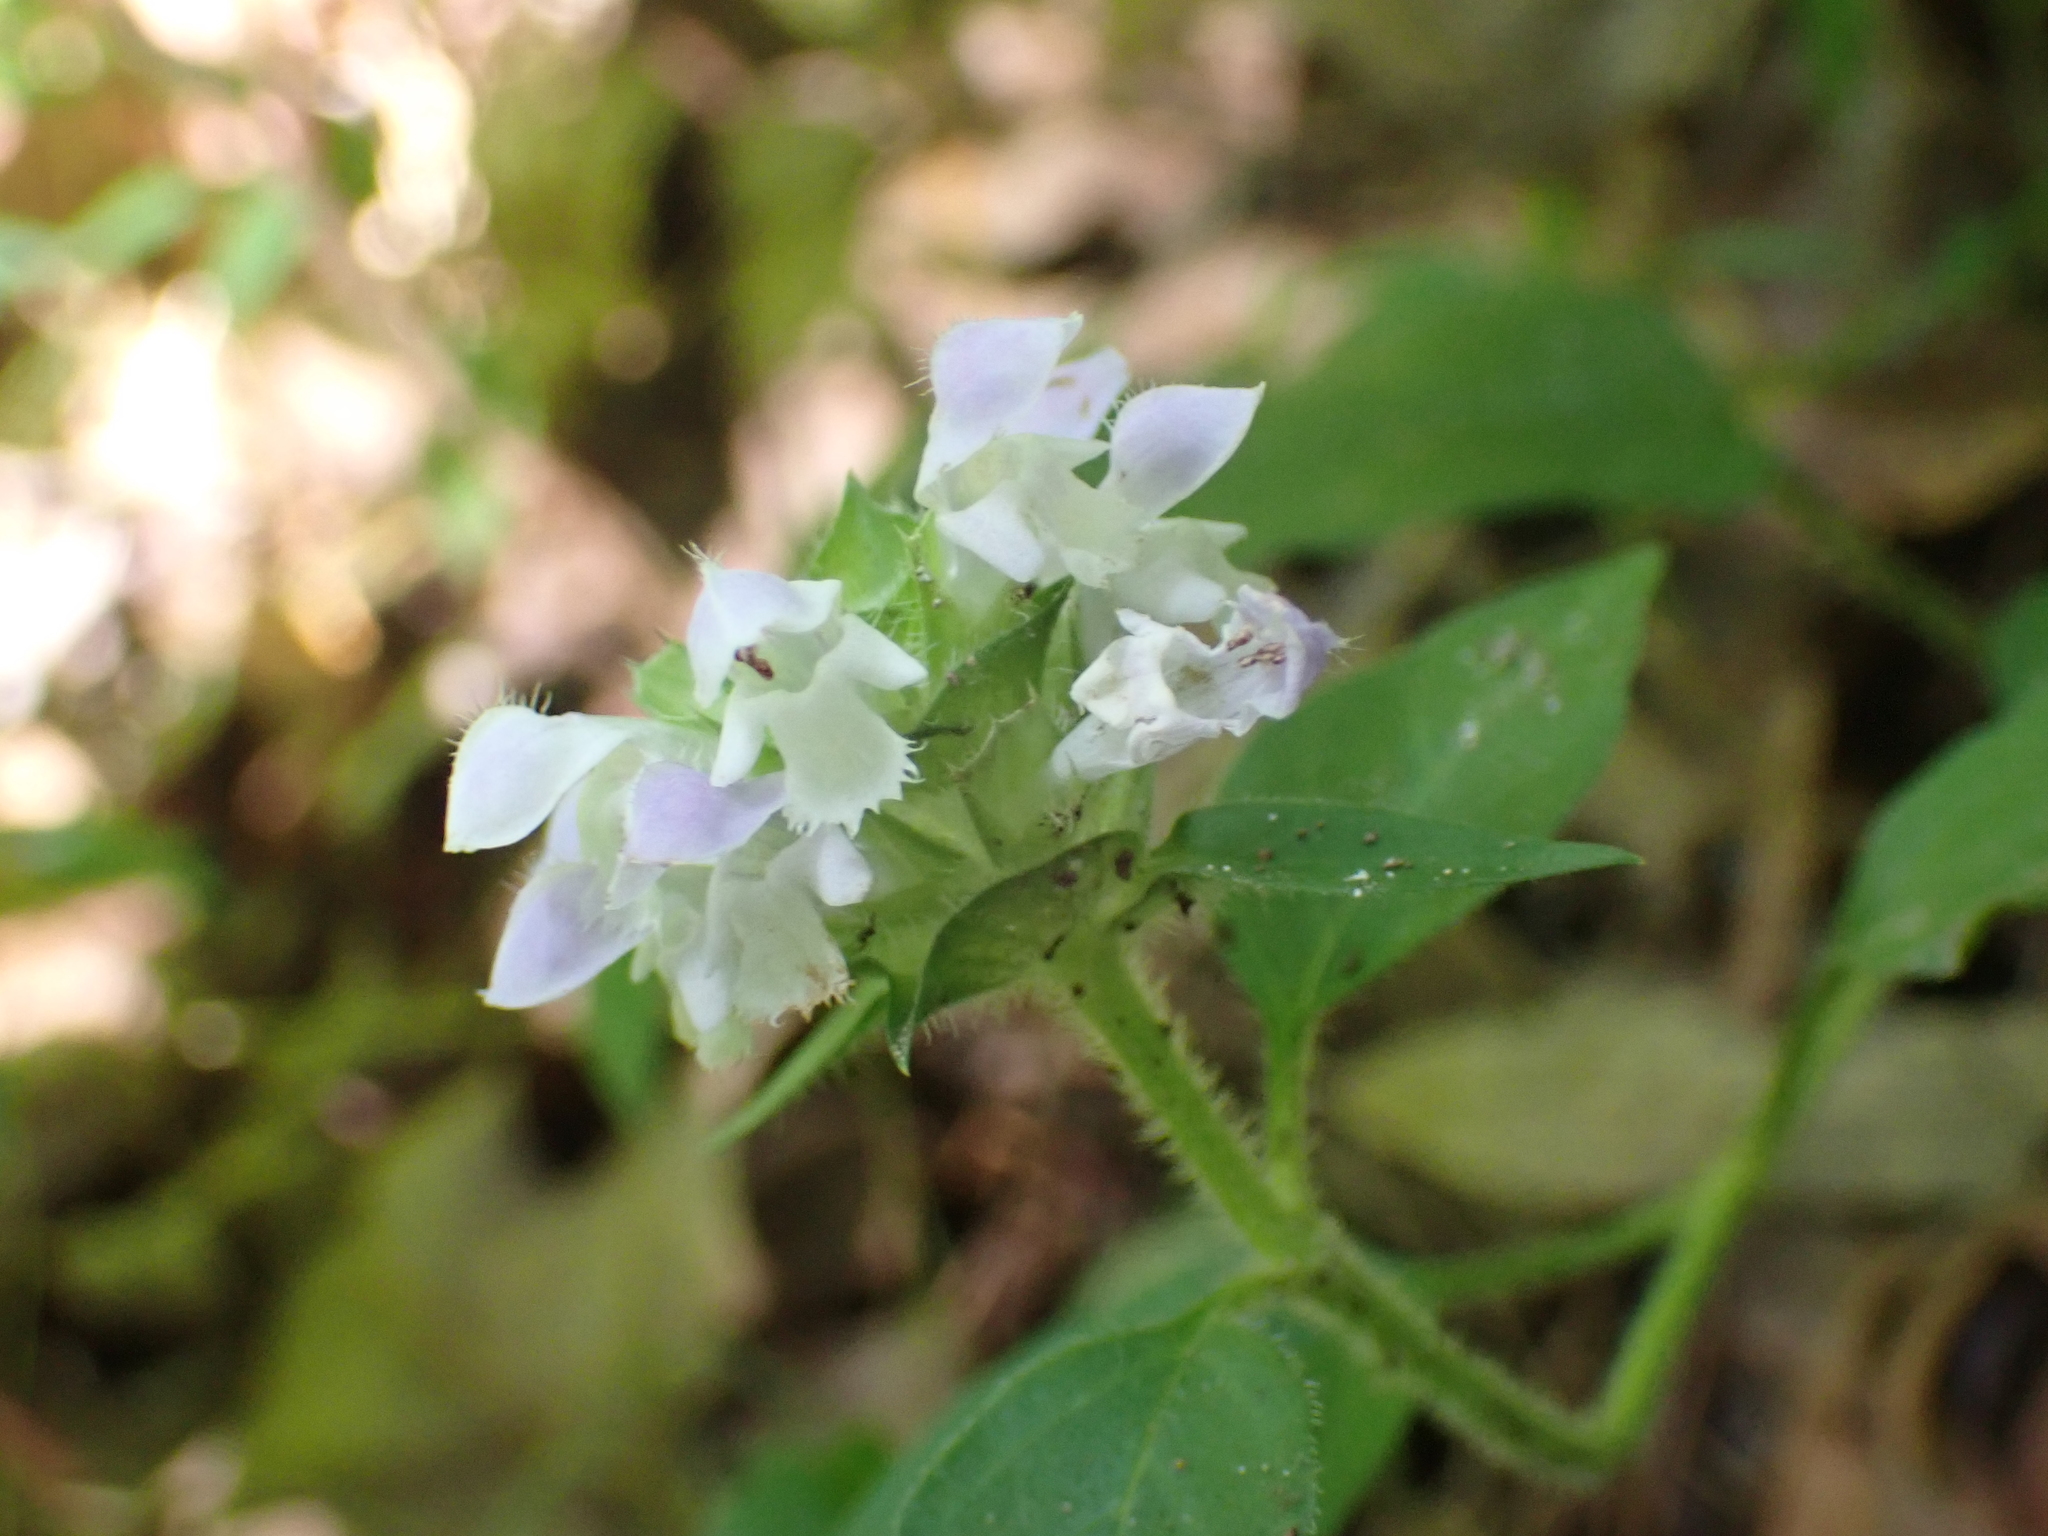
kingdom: Plantae
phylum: Tracheophyta
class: Magnoliopsida
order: Lamiales
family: Lamiaceae
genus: Prunella
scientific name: Prunella vulgaris
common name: Heal-all
